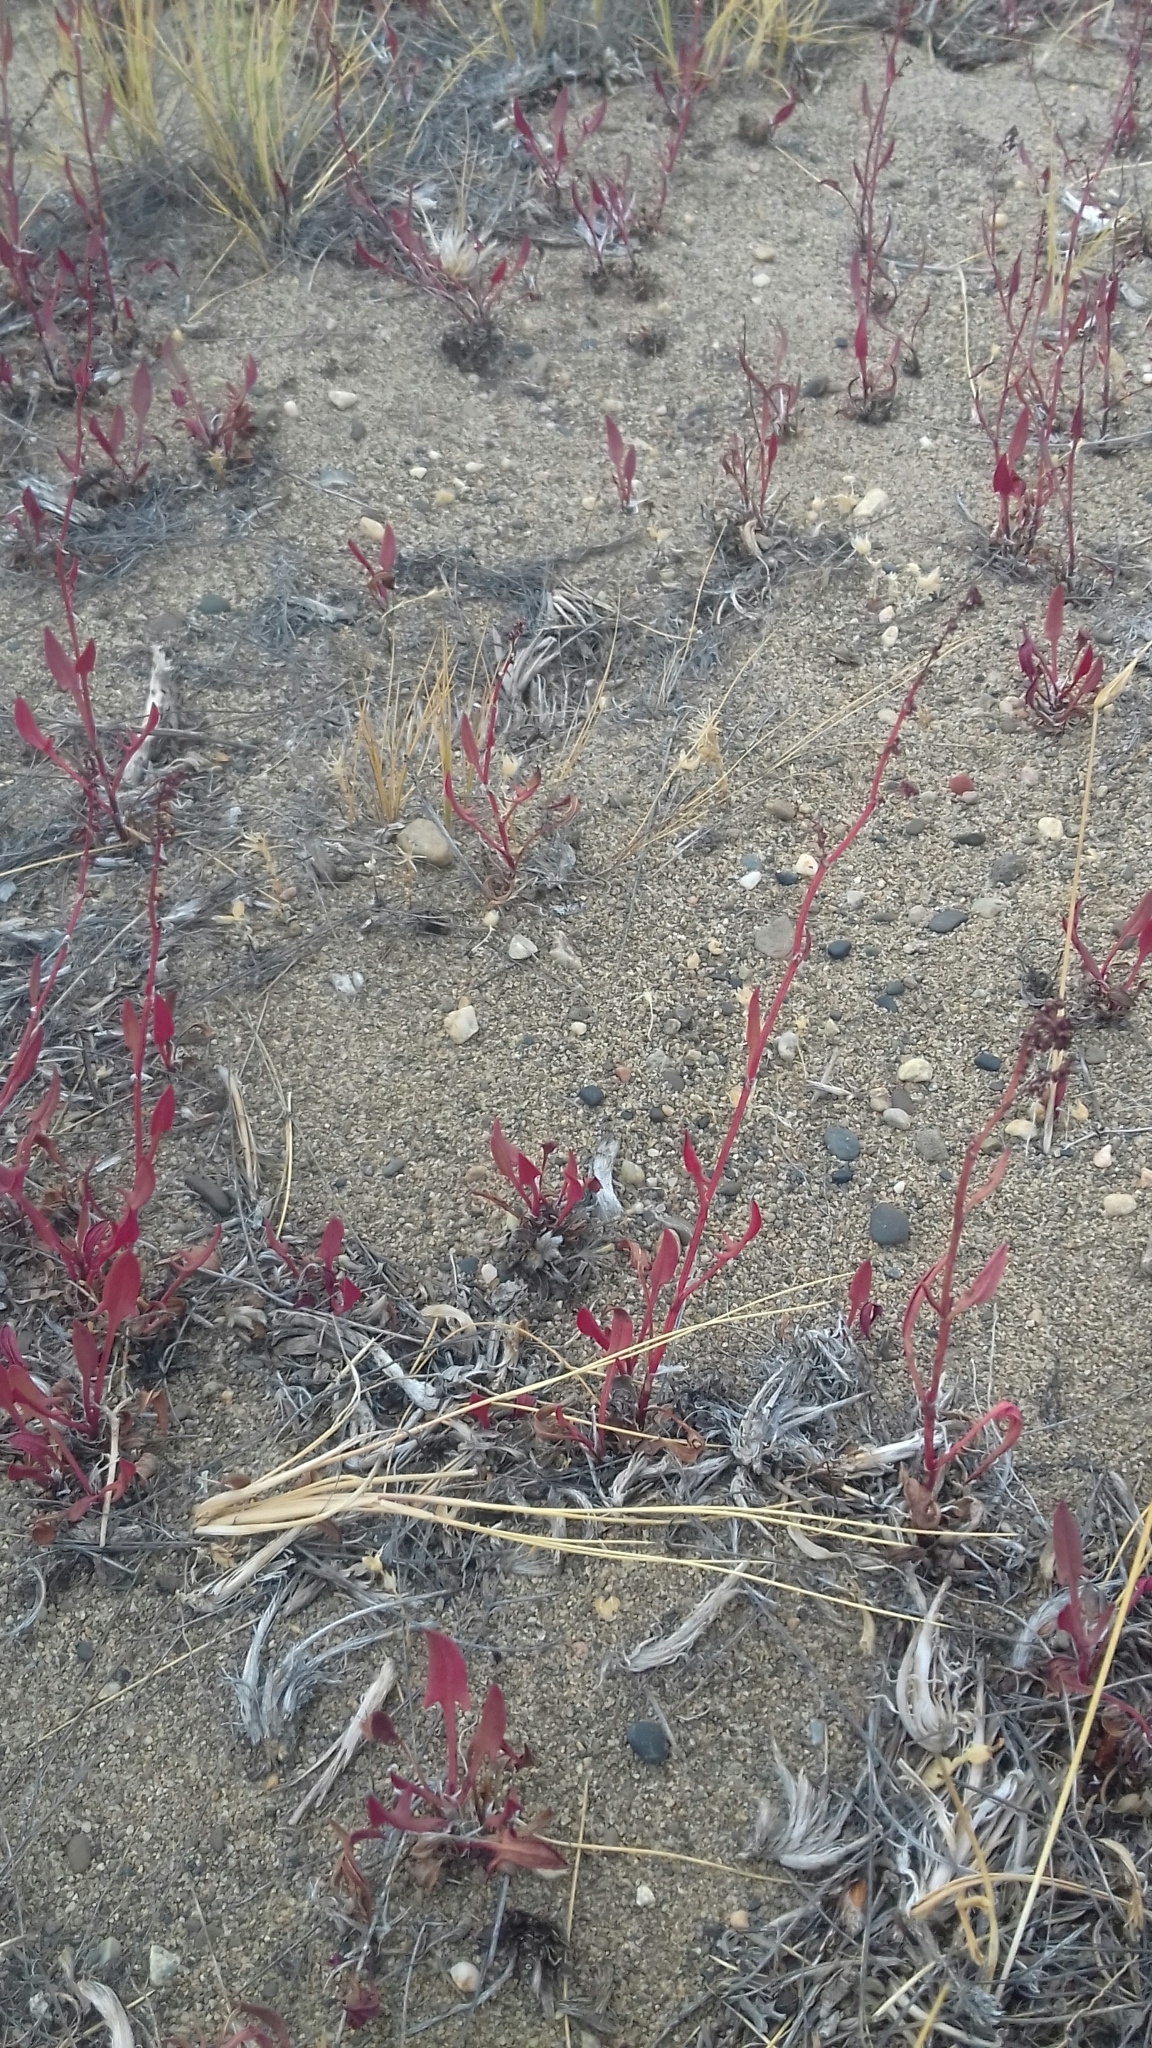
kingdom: Plantae
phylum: Tracheophyta
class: Magnoliopsida
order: Caryophyllales
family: Polygonaceae
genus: Rumex
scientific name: Rumex acetosella
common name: Common sheep sorrel
